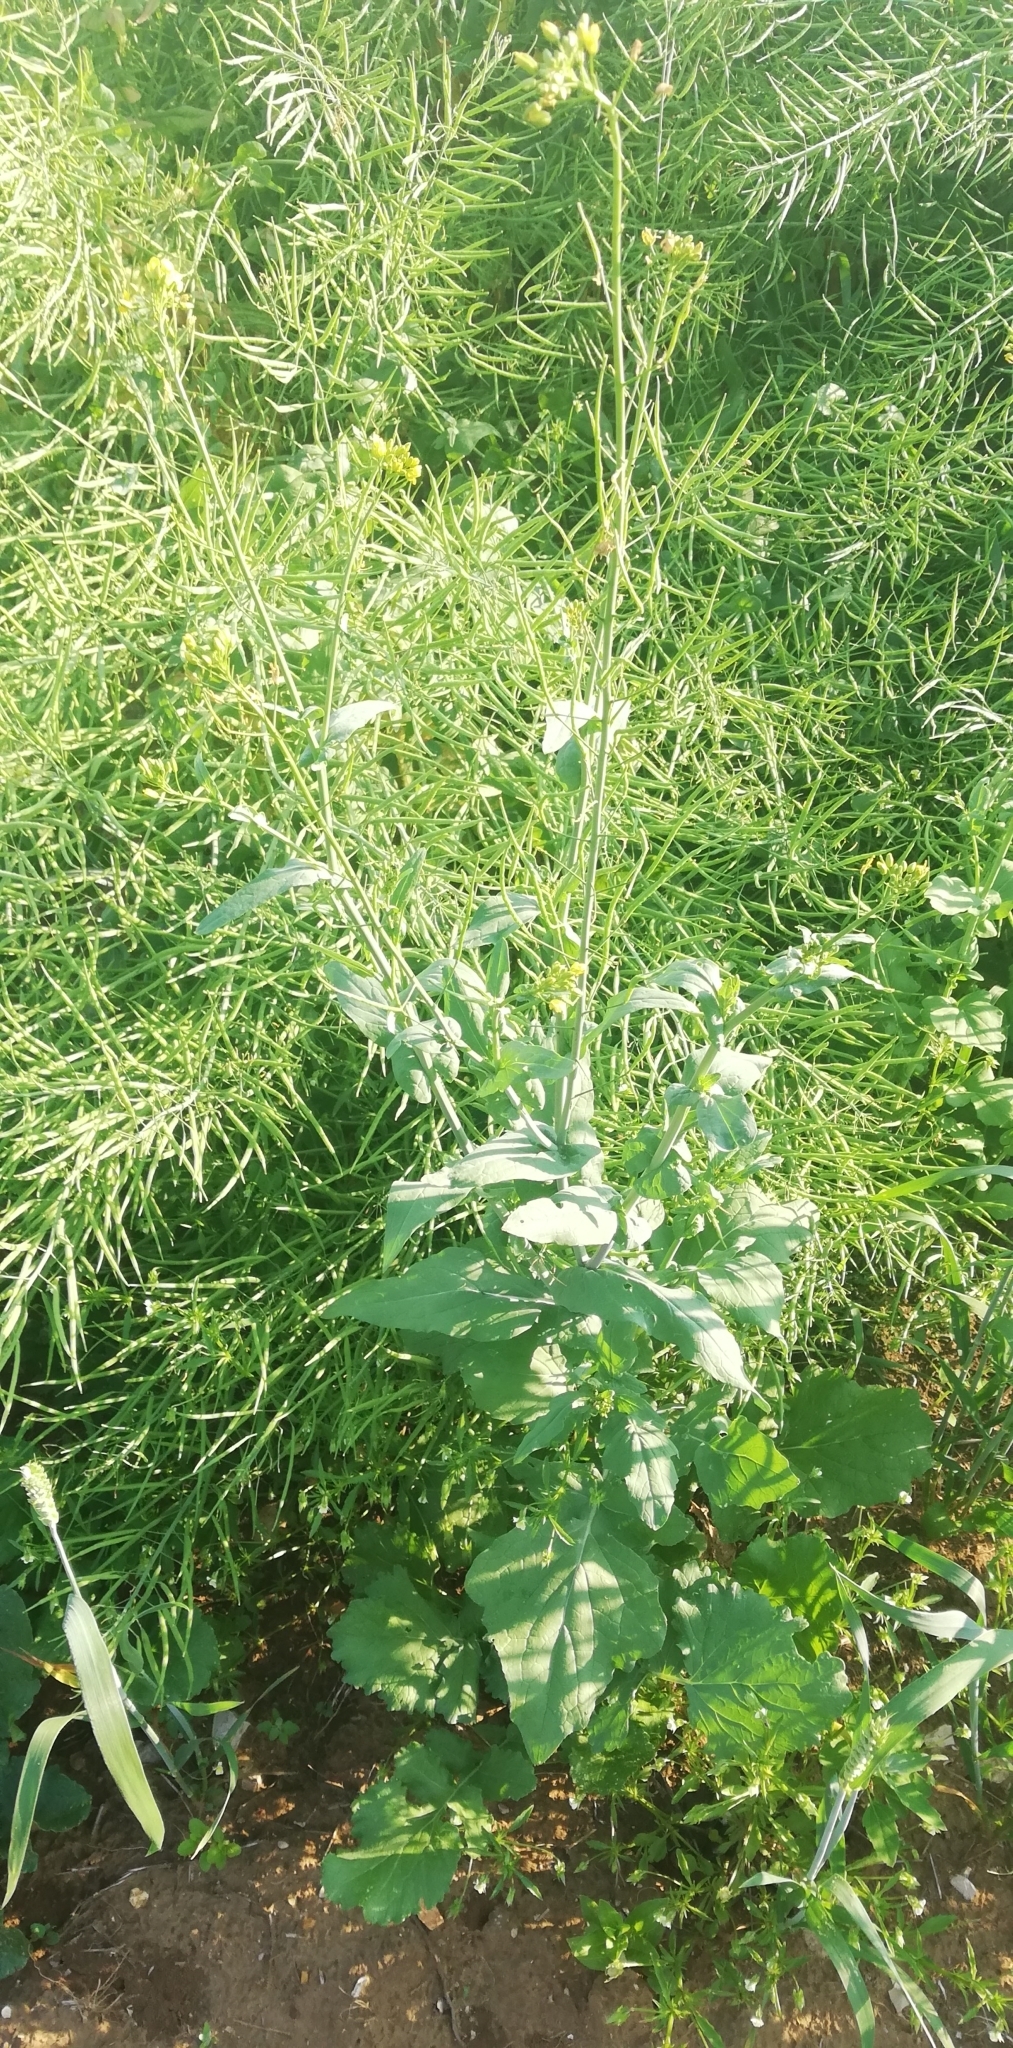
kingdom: Plantae
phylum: Tracheophyta
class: Magnoliopsida
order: Brassicales
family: Brassicaceae
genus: Brassica
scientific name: Brassica rapa
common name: Field mustard
